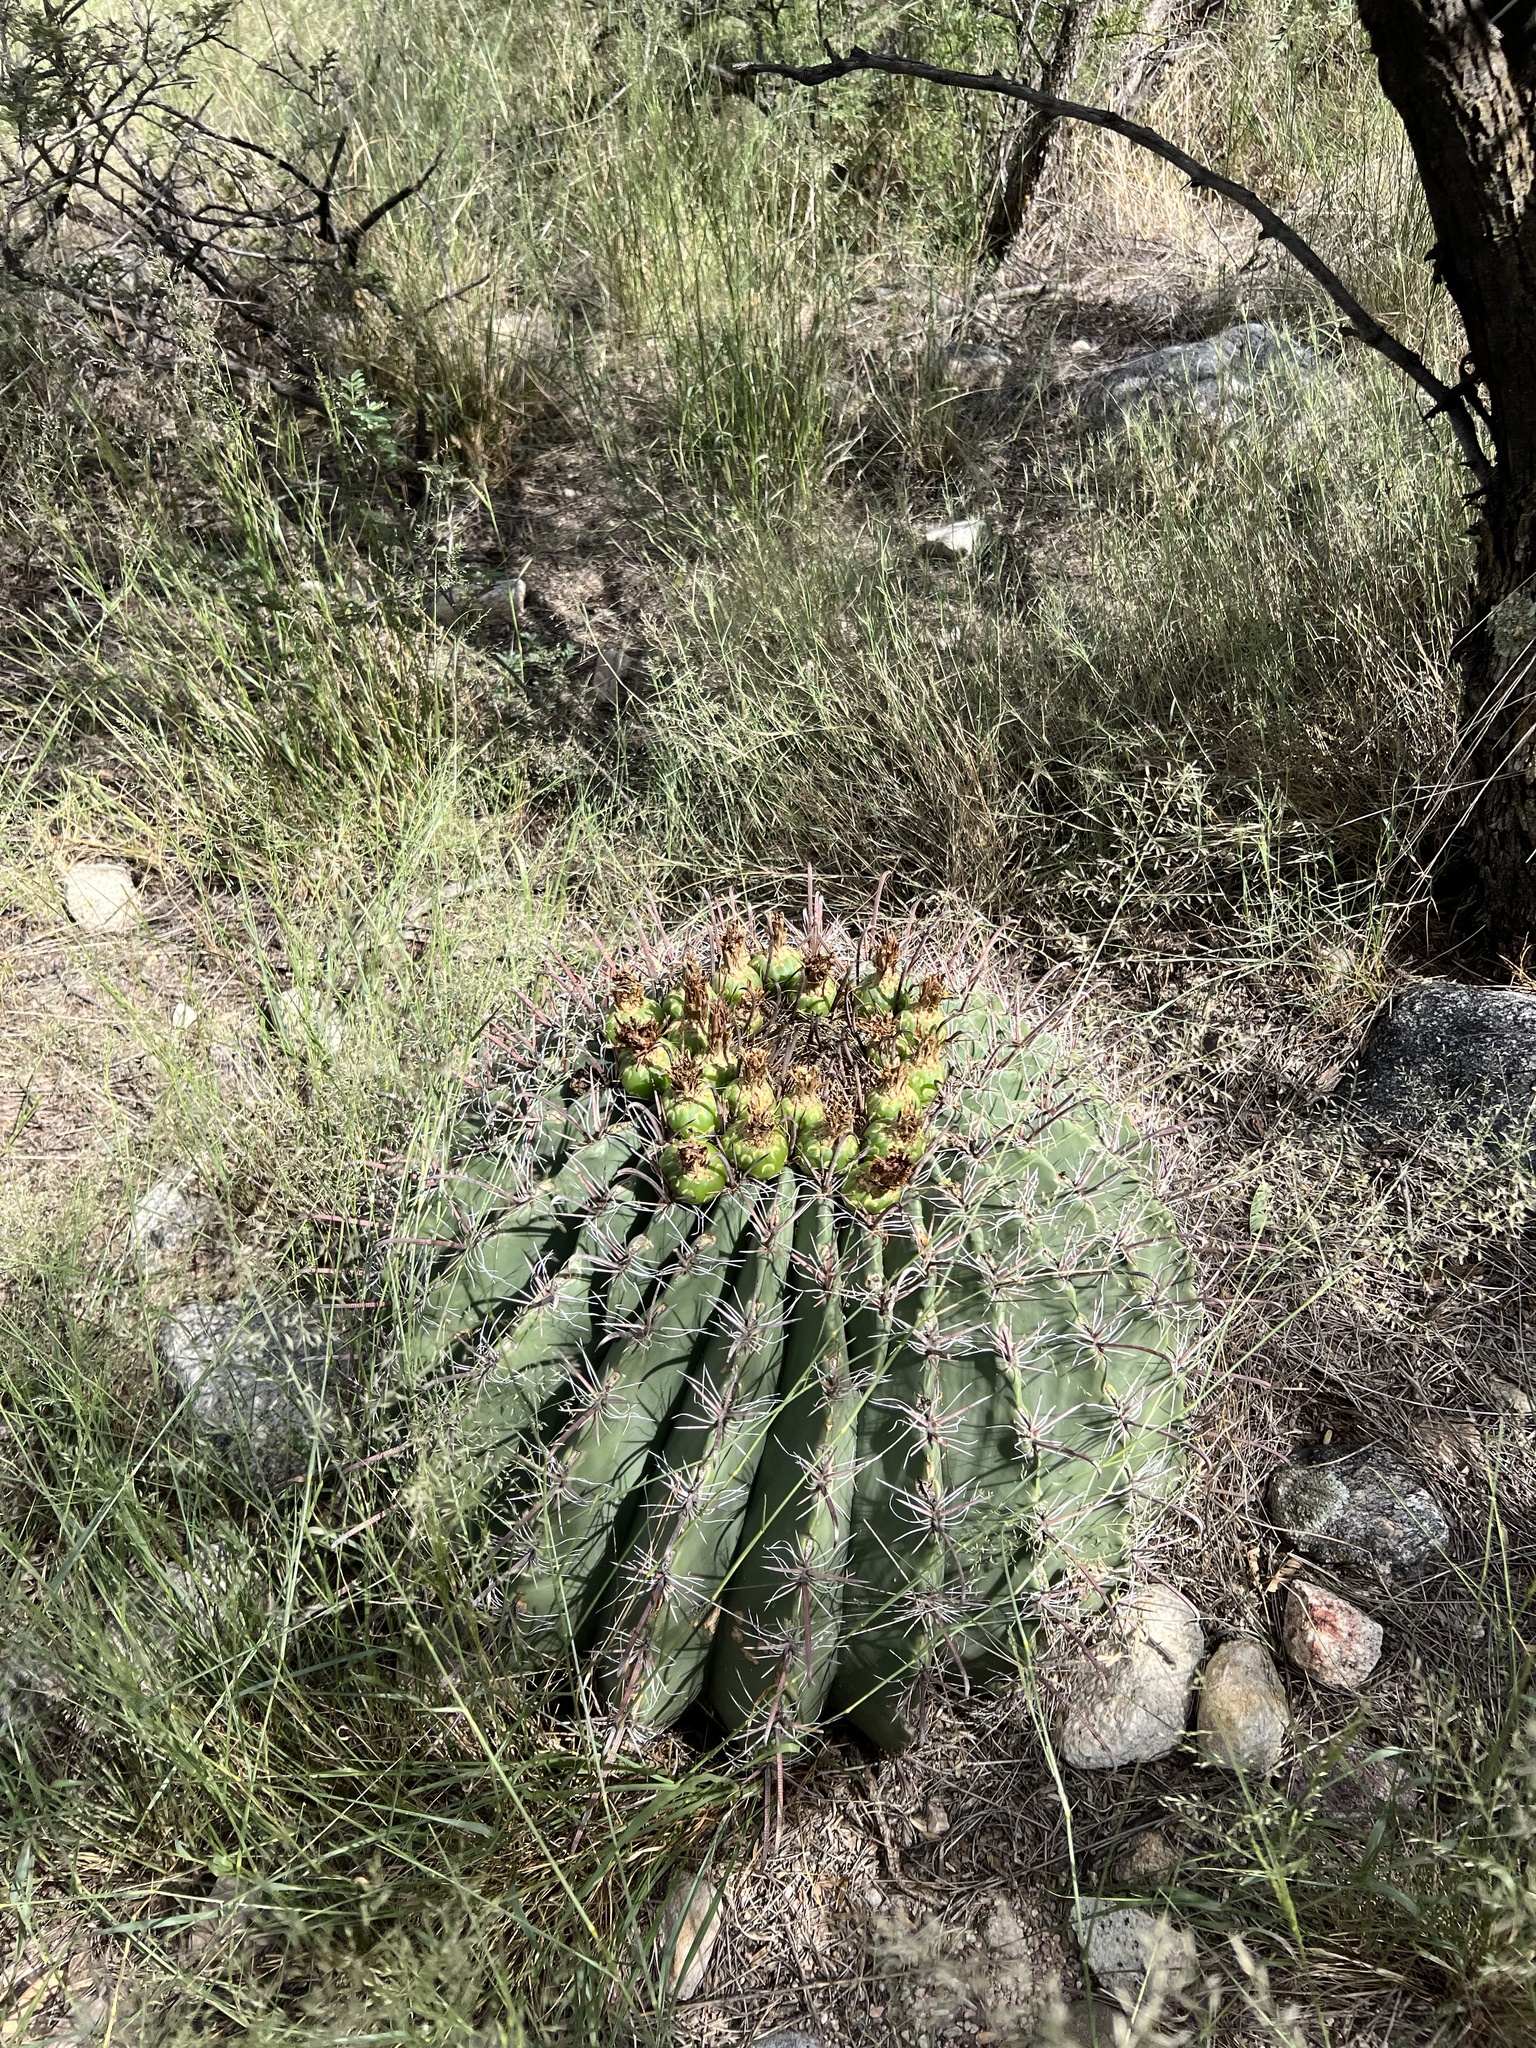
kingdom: Plantae
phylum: Tracheophyta
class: Magnoliopsida
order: Caryophyllales
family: Cactaceae
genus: Ferocactus
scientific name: Ferocactus wislizeni
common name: Candy barrel cactus
